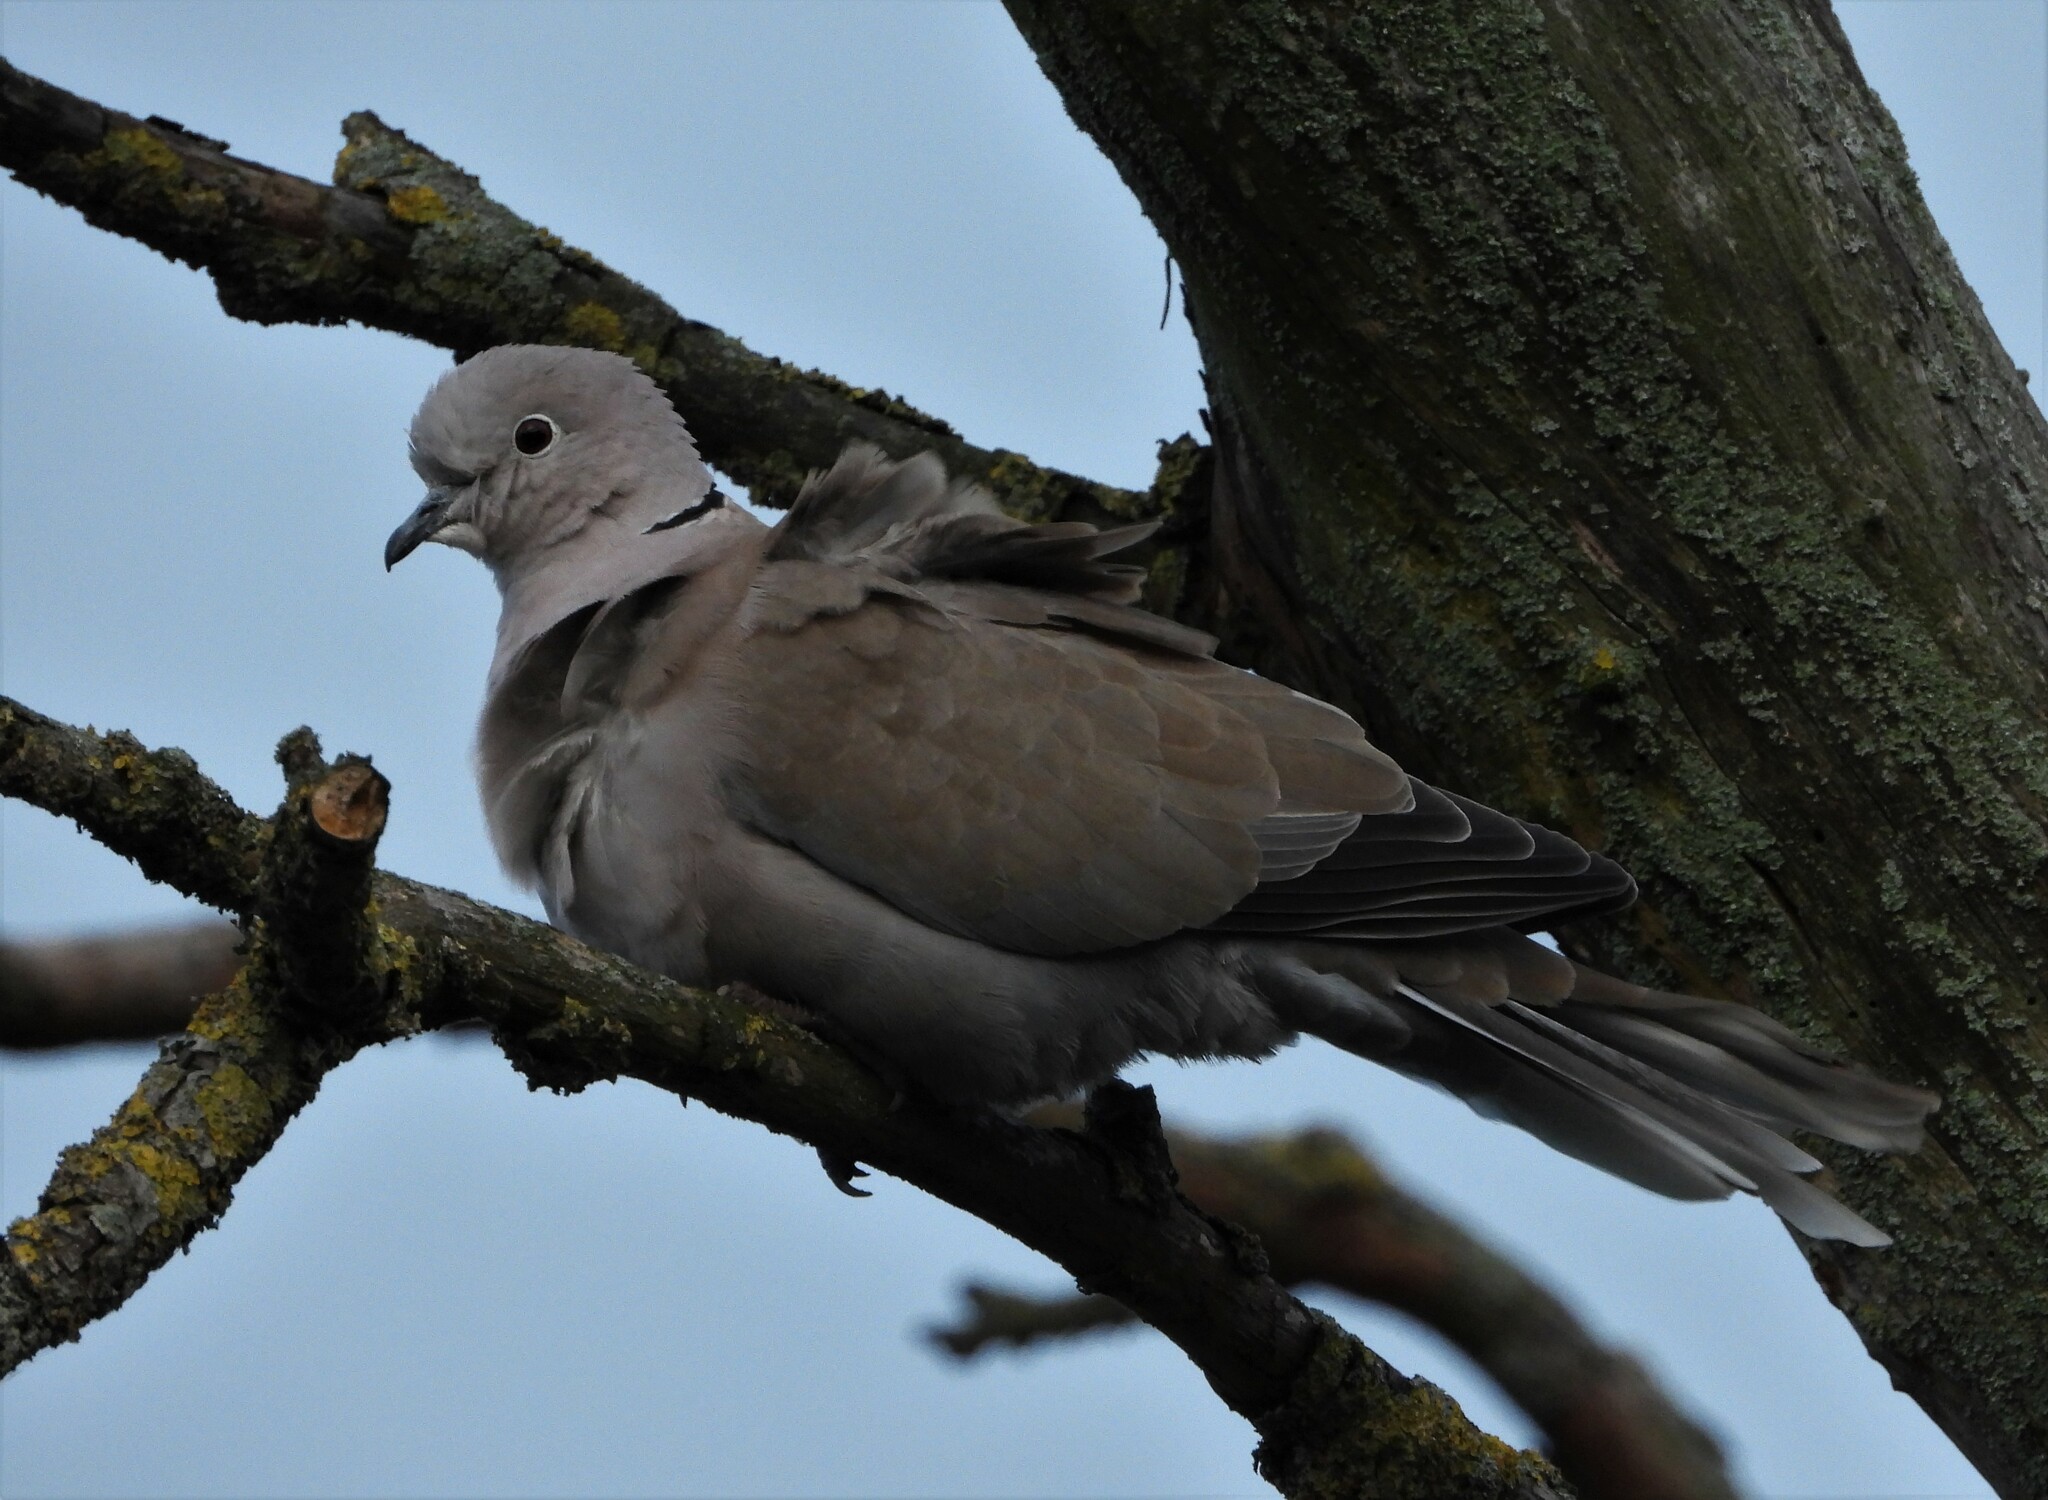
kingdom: Animalia
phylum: Chordata
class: Aves
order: Columbiformes
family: Columbidae
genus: Streptopelia
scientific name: Streptopelia decaocto
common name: Eurasian collared dove
